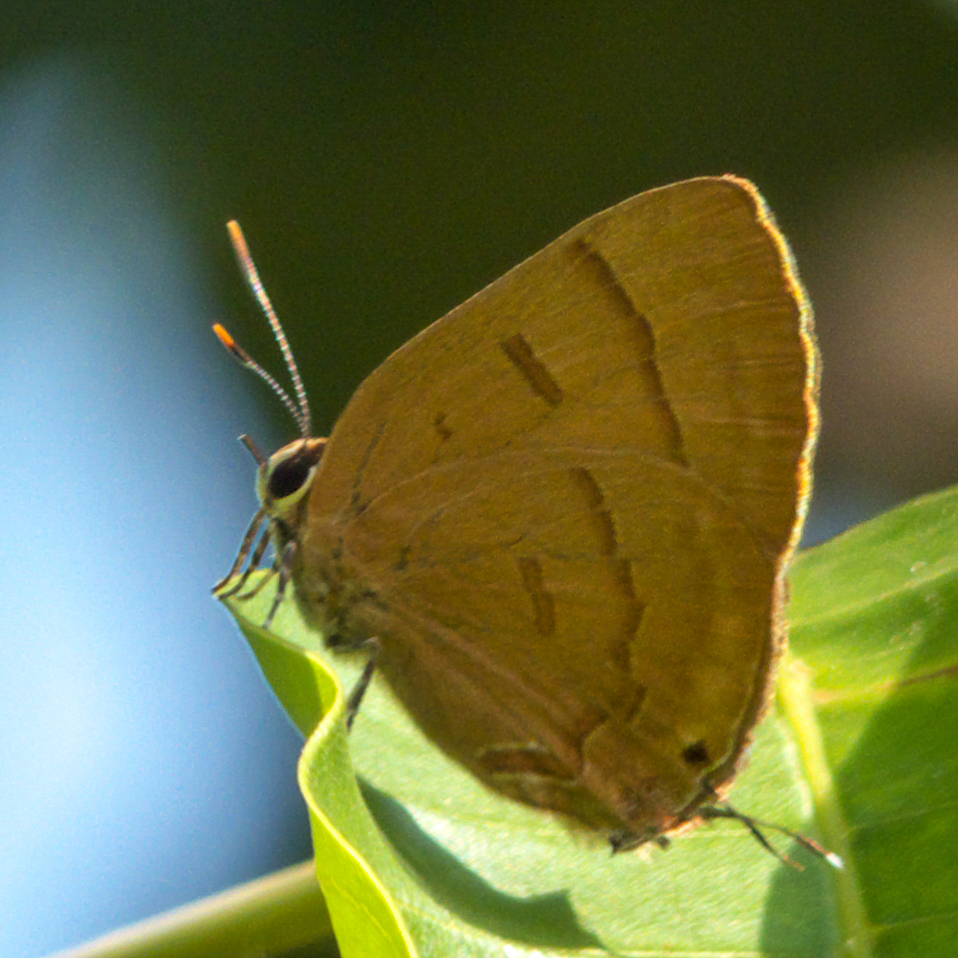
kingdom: Animalia
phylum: Arthropoda
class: Insecta
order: Lepidoptera
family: Lycaenidae
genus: Rapala
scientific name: Rapala pheretima
